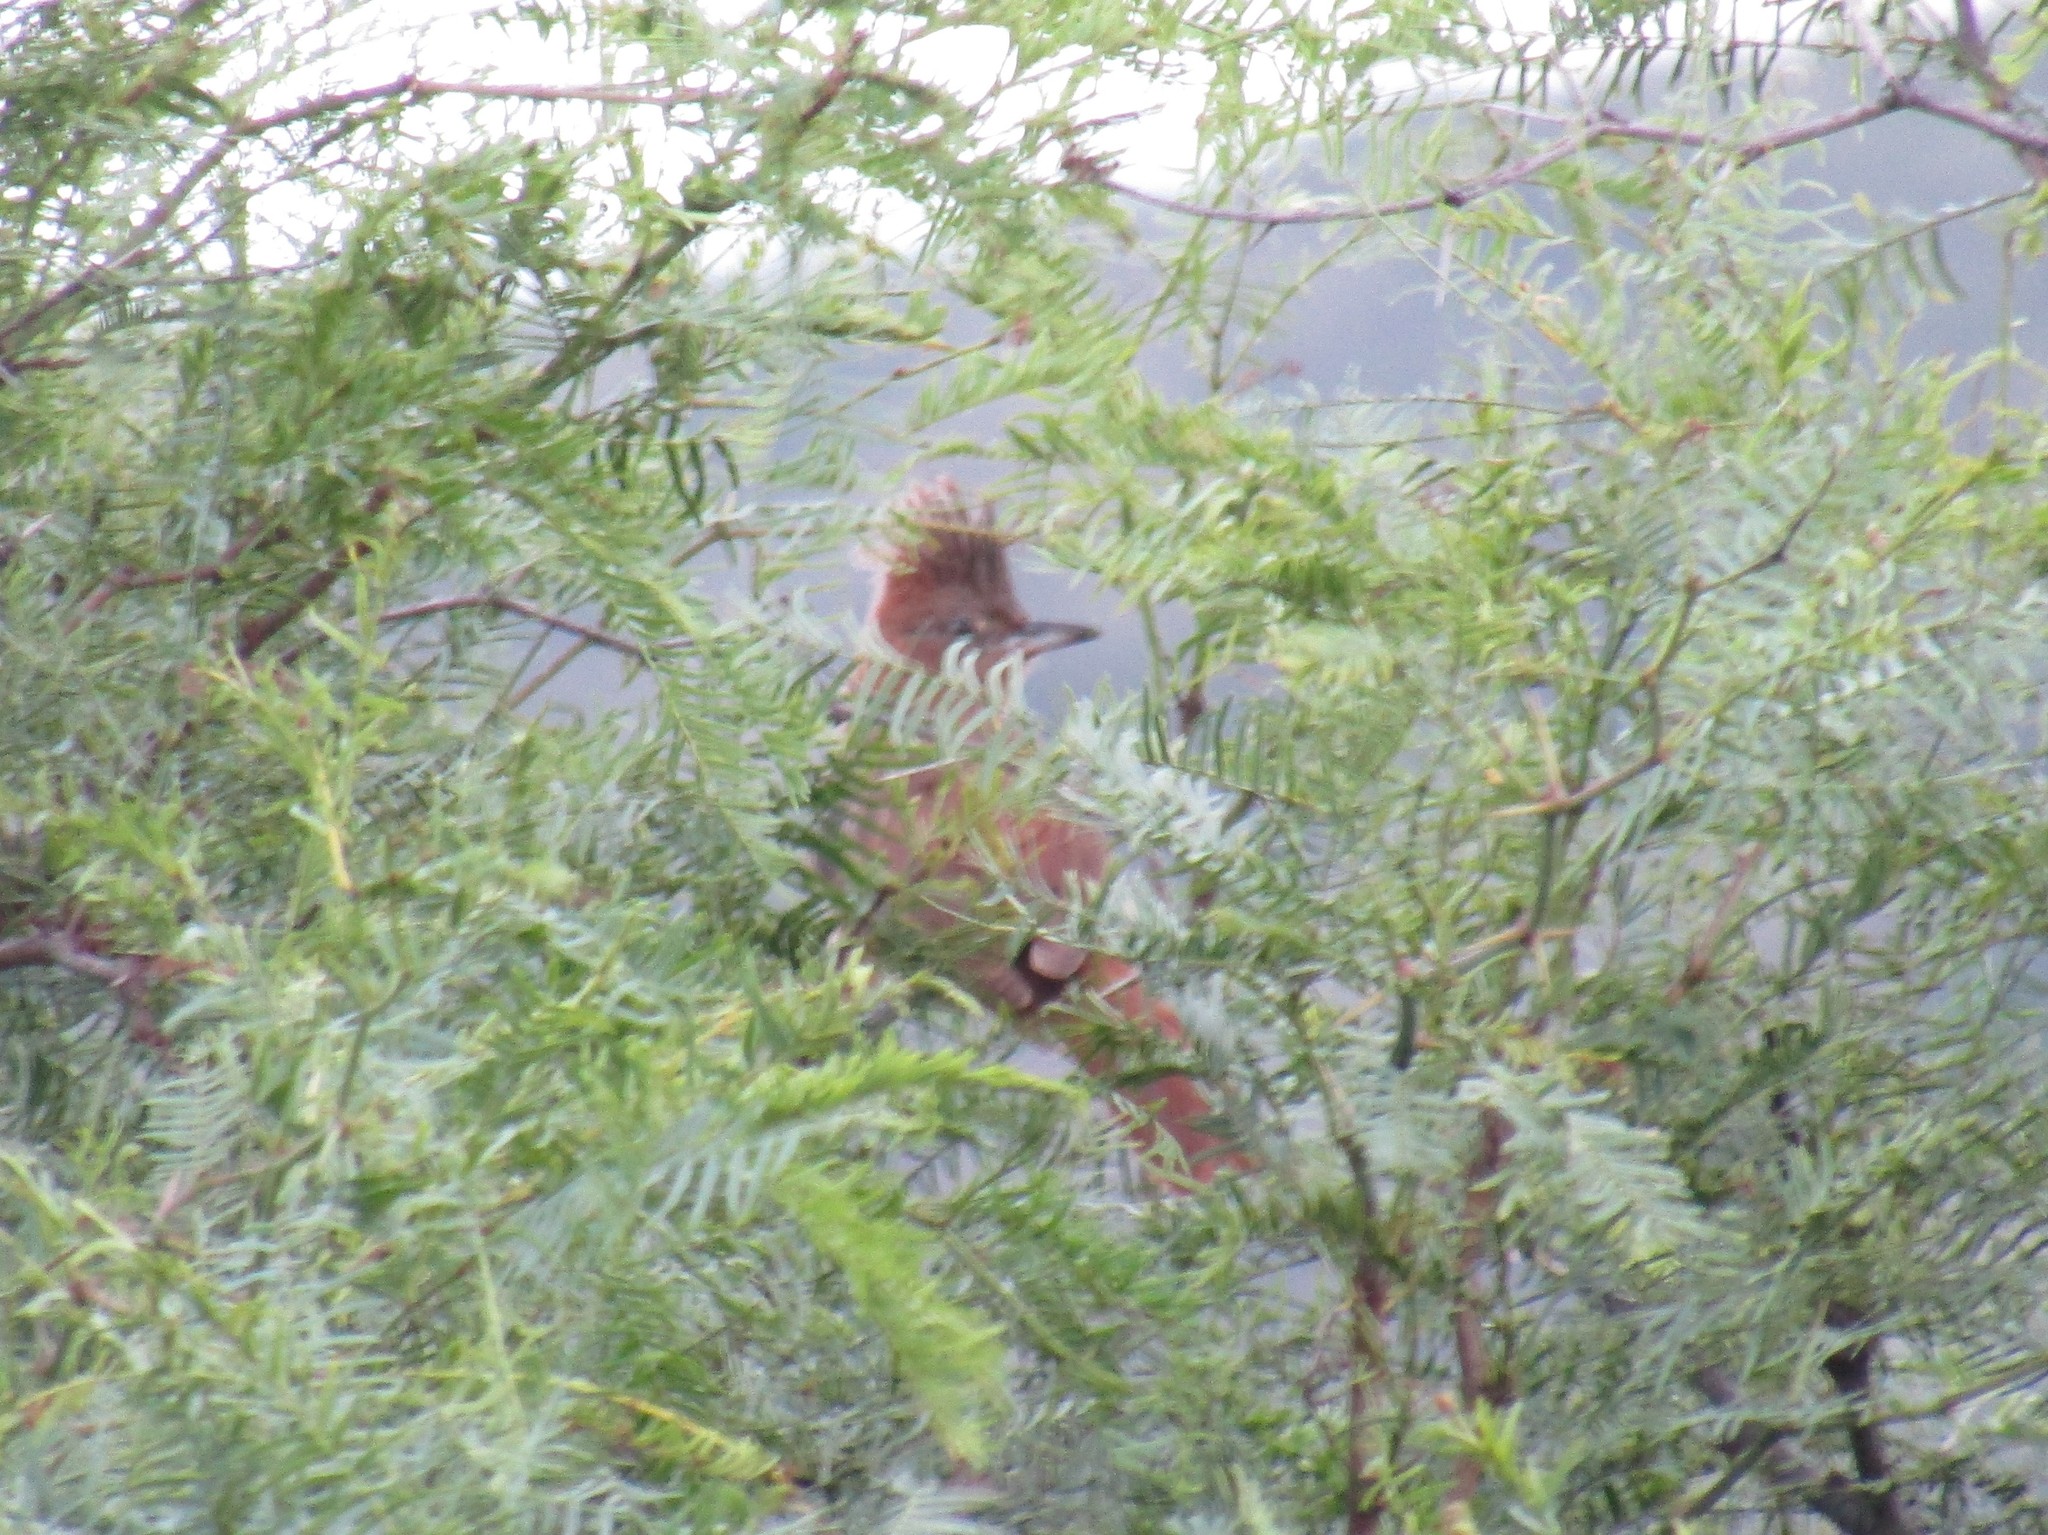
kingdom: Animalia
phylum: Chordata
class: Aves
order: Passeriformes
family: Furnariidae
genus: Pseudoseisura
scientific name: Pseudoseisura lophotes
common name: Brown cacholote
